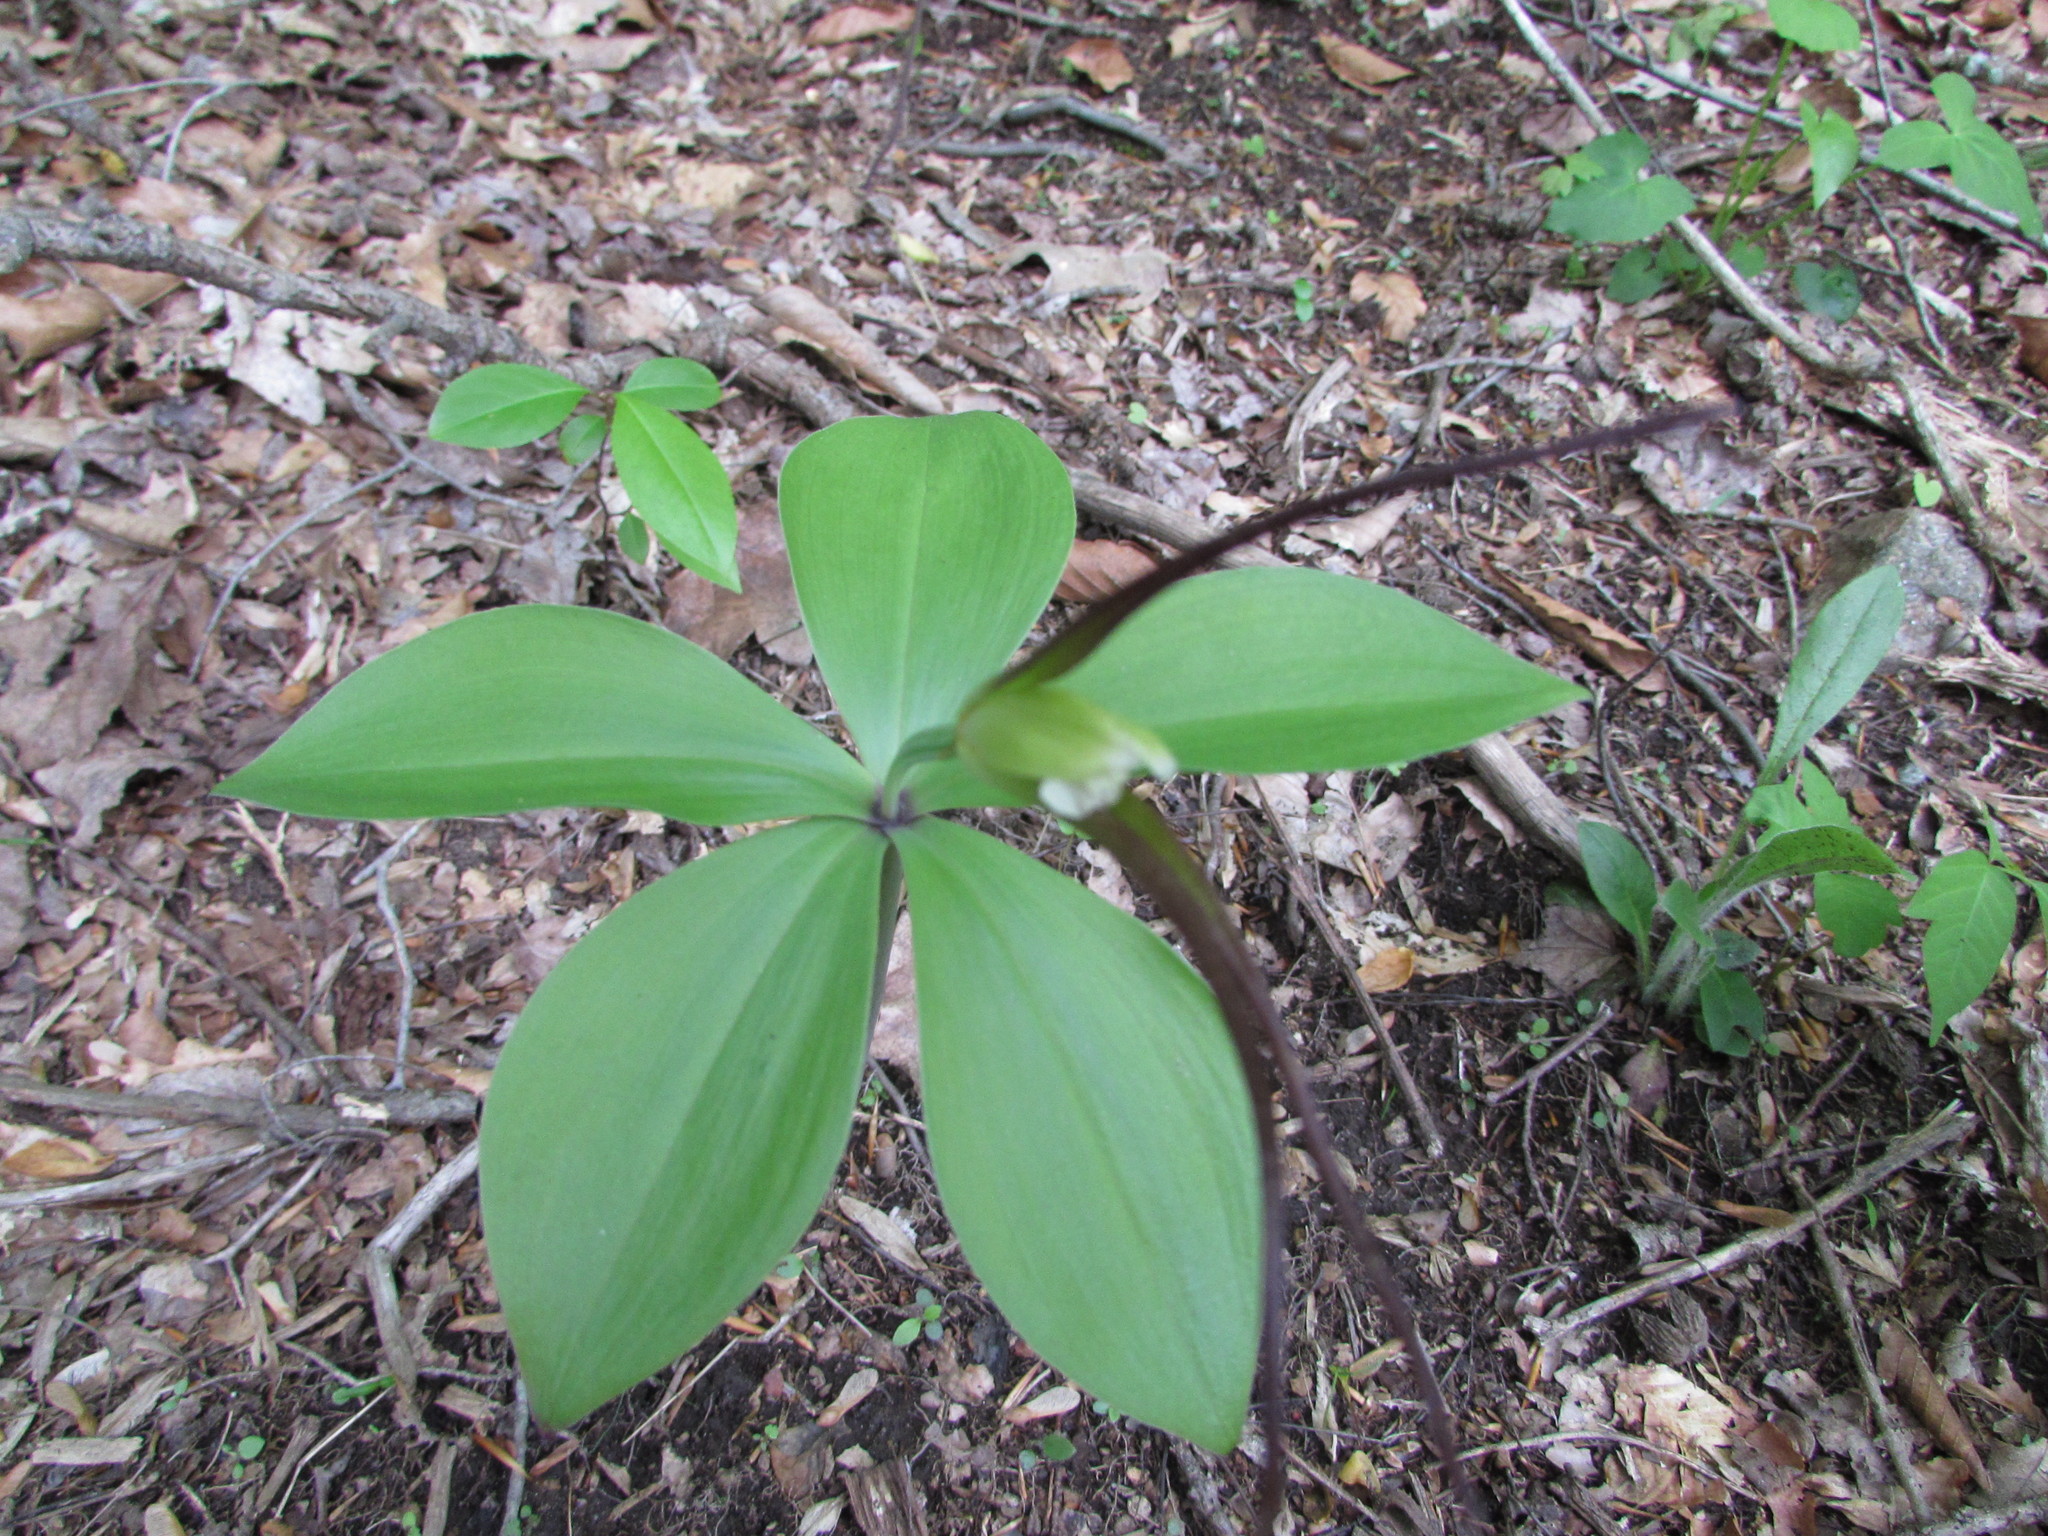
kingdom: Plantae
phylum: Tracheophyta
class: Liliopsida
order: Asparagales
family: Orchidaceae
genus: Isotria
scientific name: Isotria verticillata
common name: Large whorled pogonia
